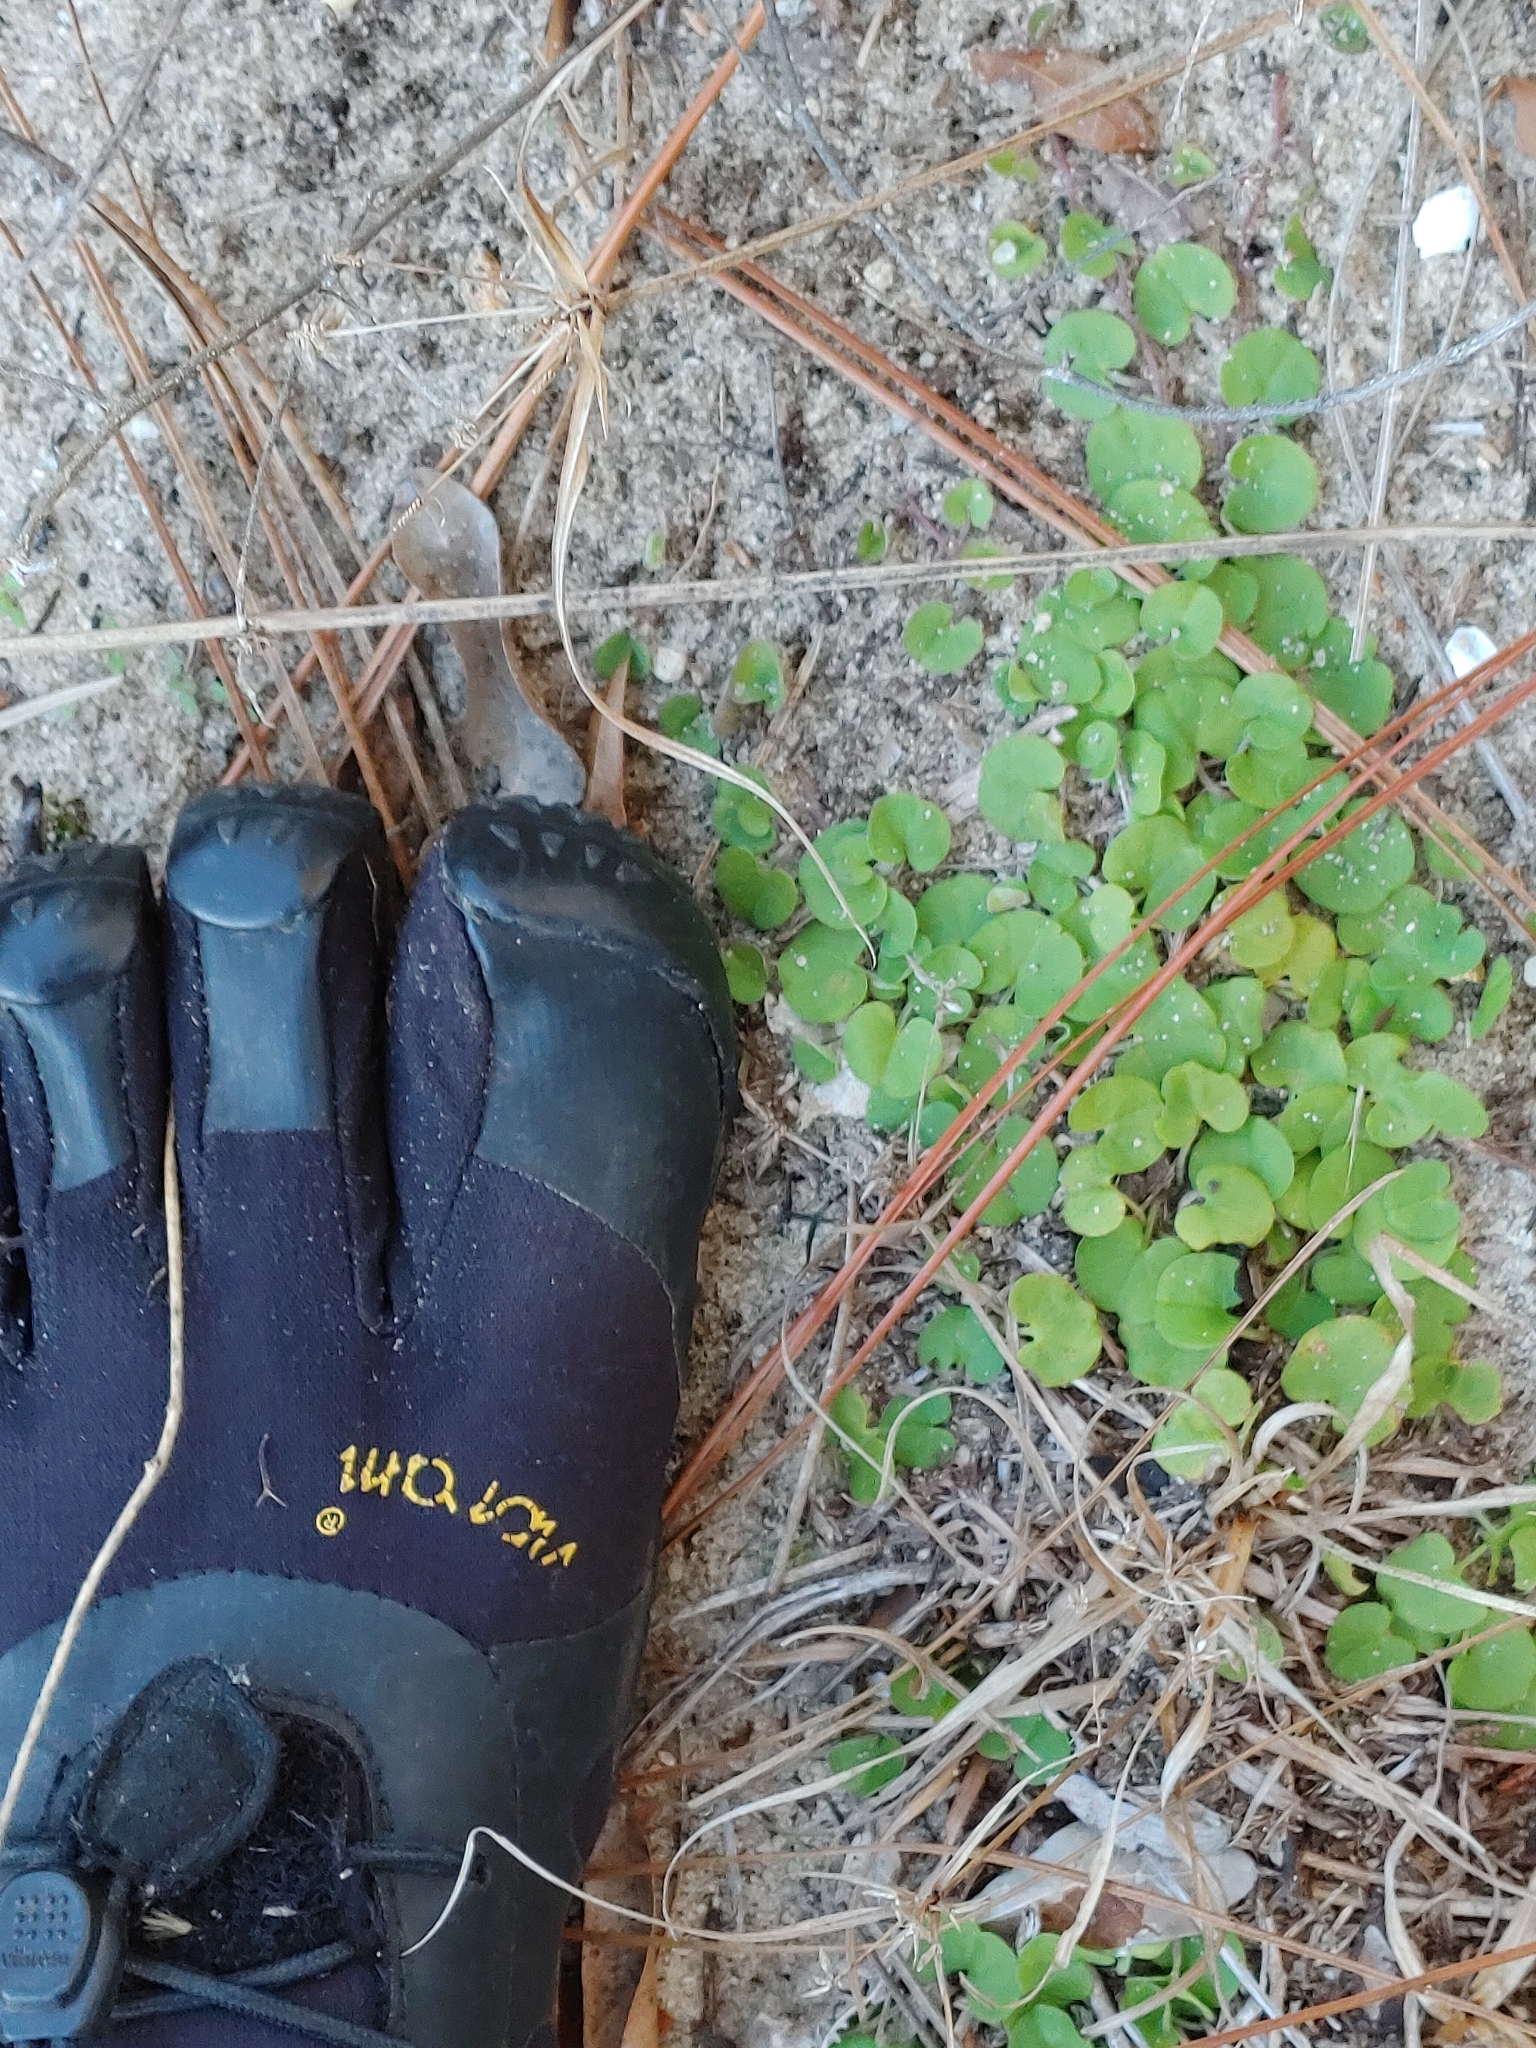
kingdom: Plantae
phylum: Tracheophyta
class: Magnoliopsida
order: Solanales
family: Convolvulaceae
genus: Dichondra
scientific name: Dichondra carolinensis
